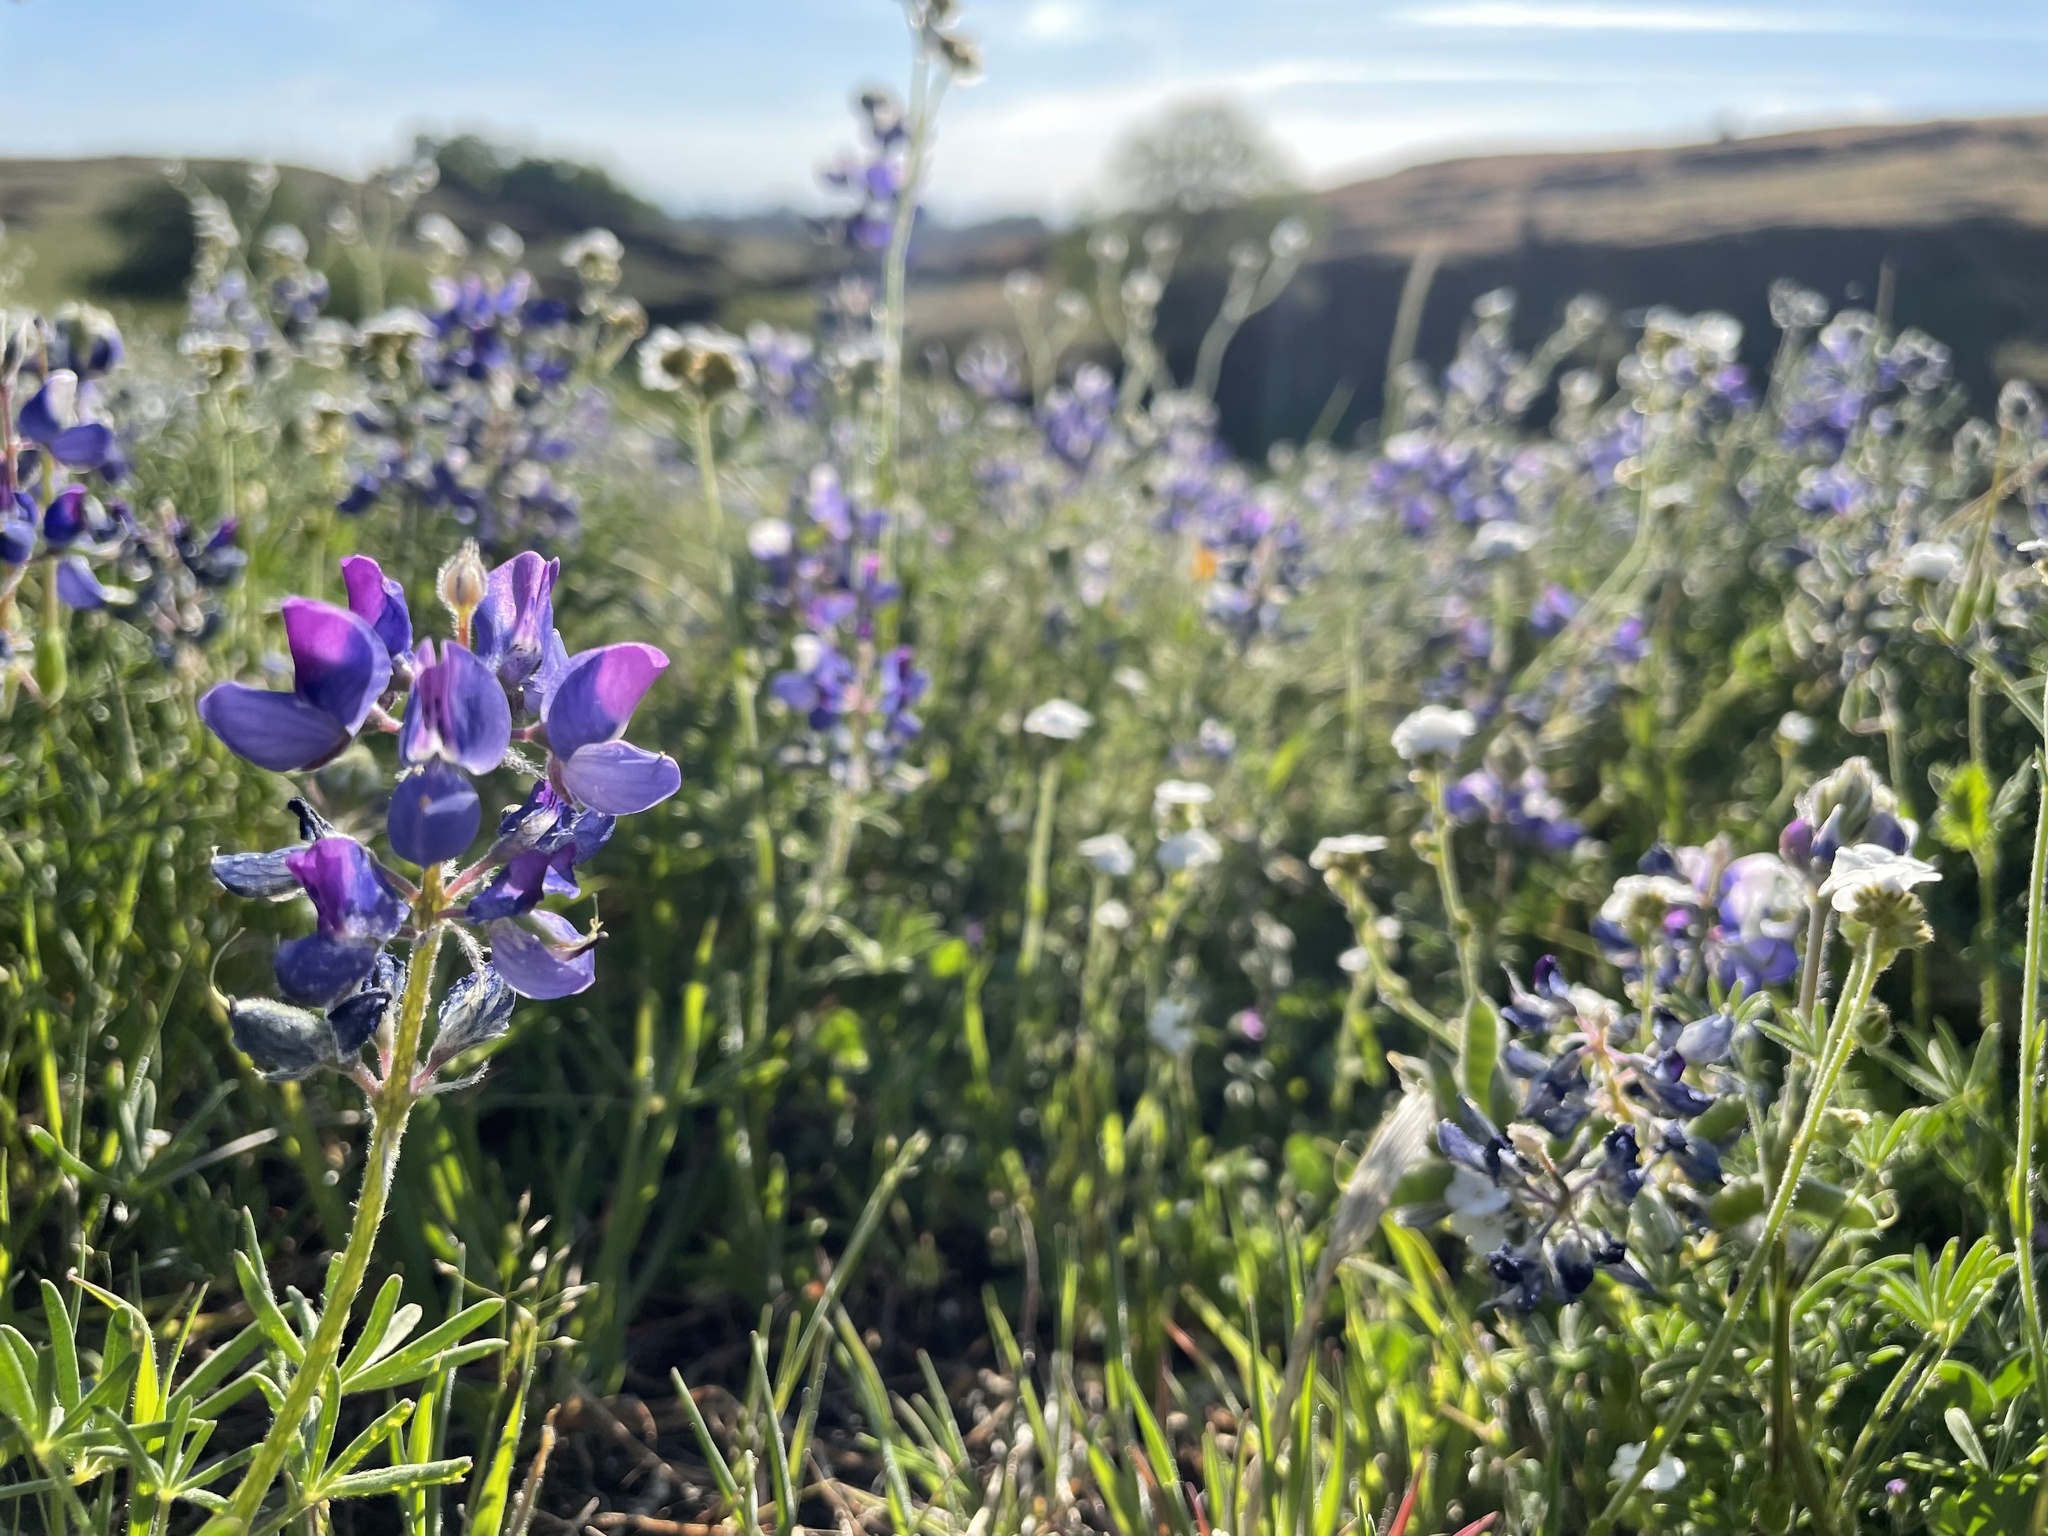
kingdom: Plantae
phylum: Tracheophyta
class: Magnoliopsida
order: Fabales
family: Fabaceae
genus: Lupinus
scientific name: Lupinus nanus
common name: Orean blue lupin
